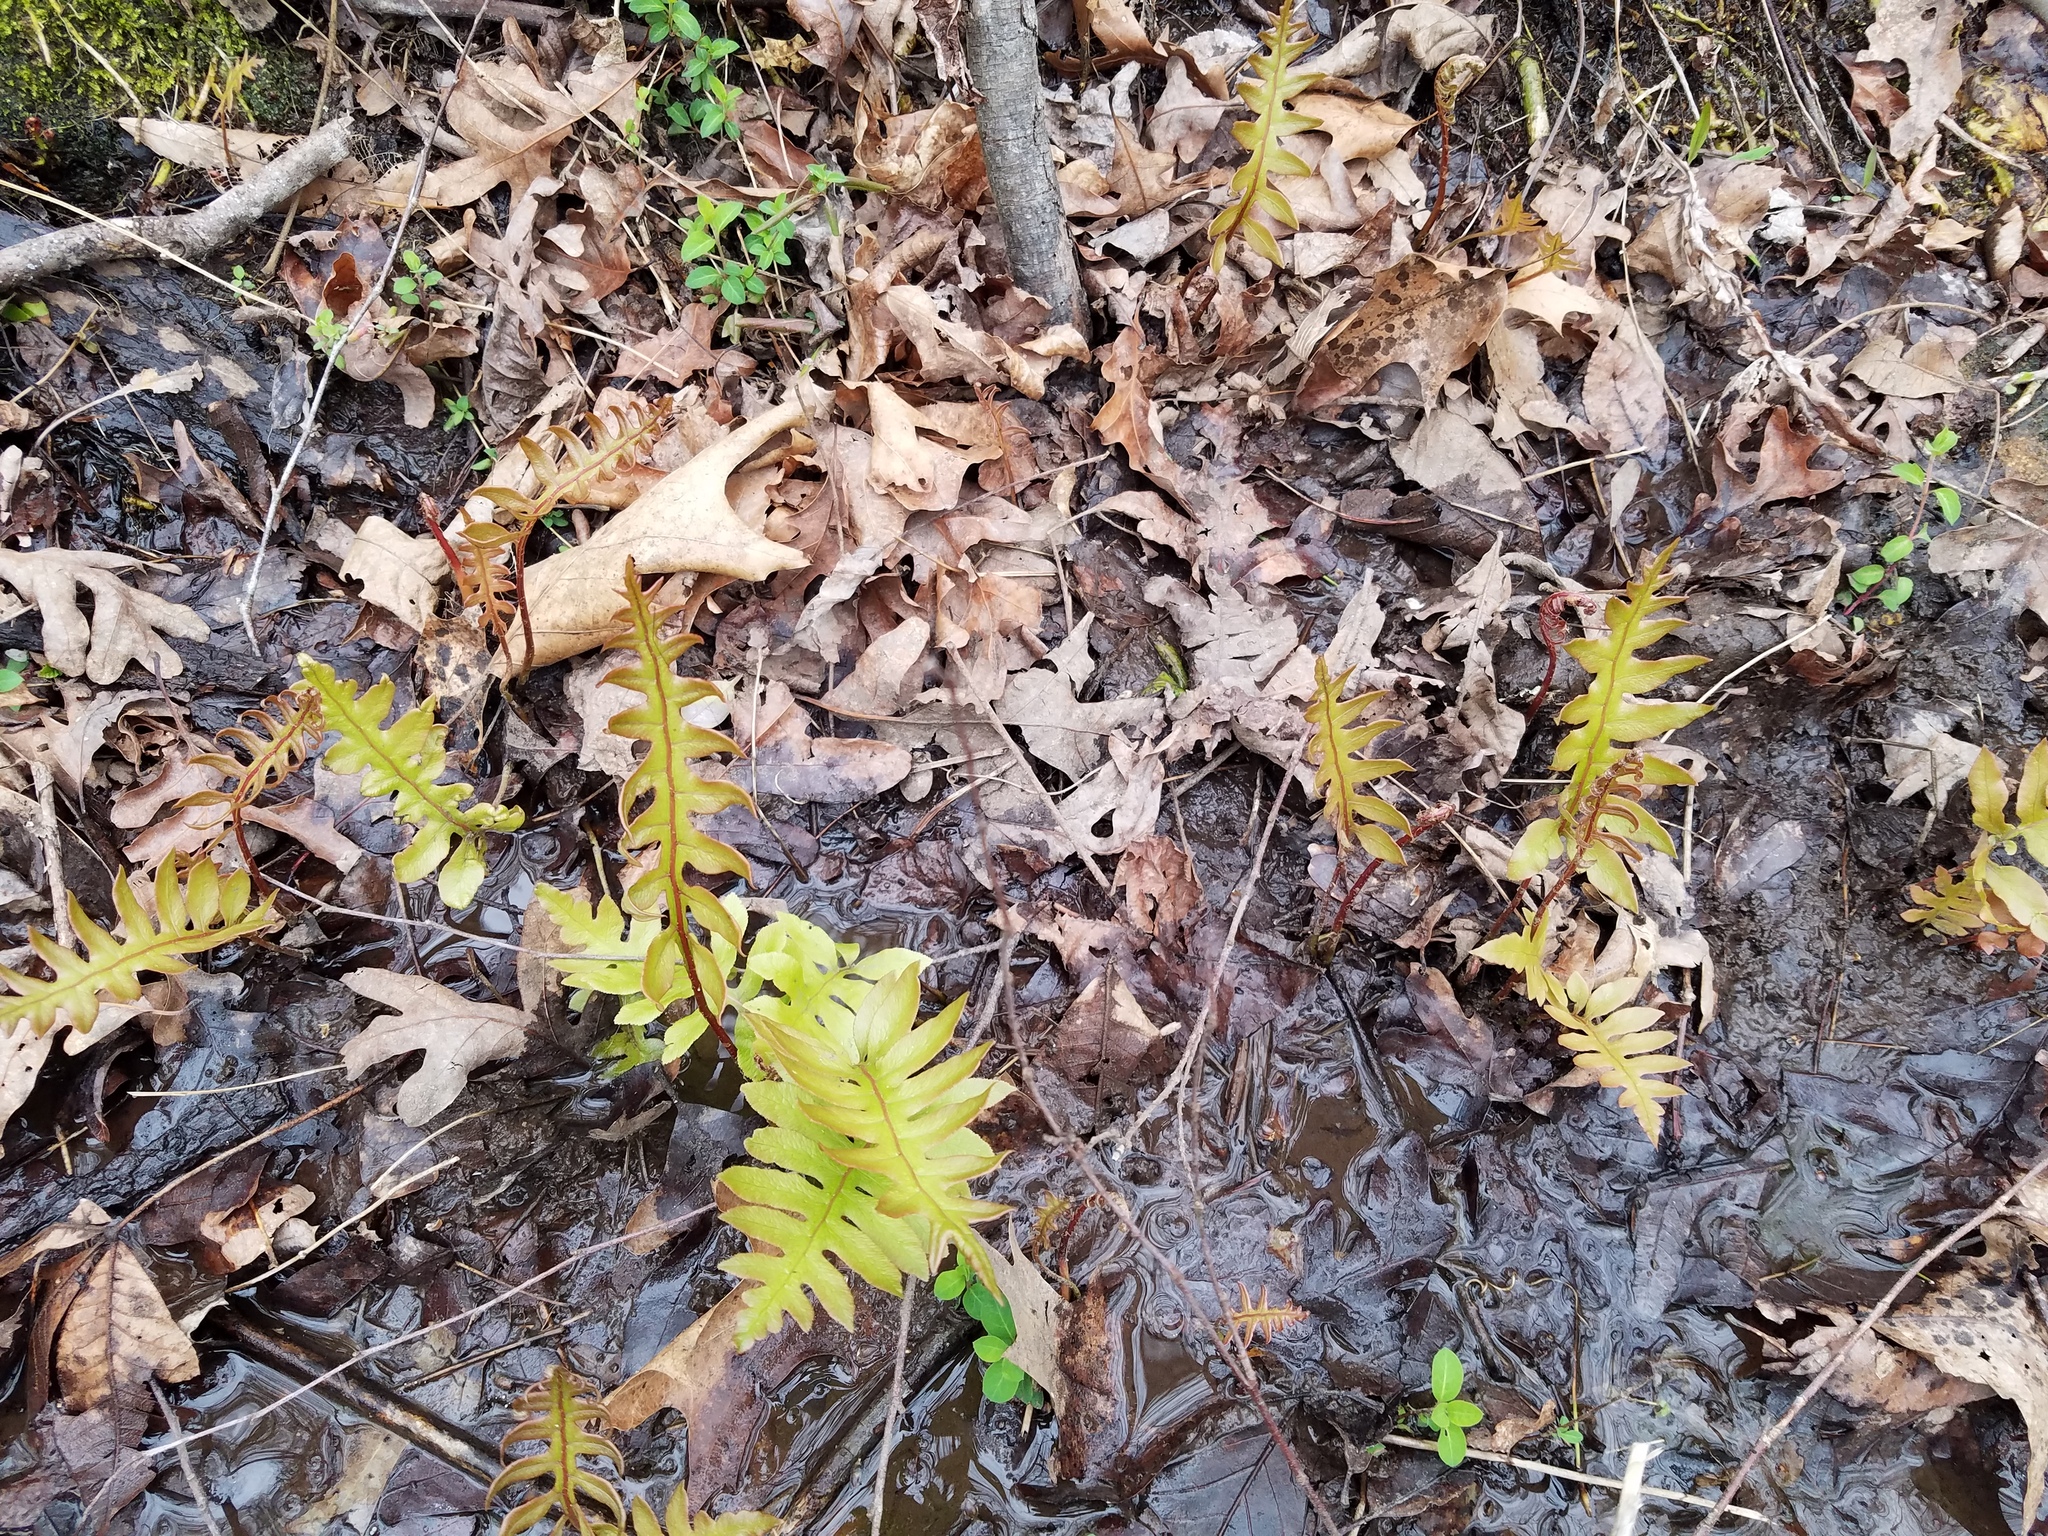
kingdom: Plantae
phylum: Tracheophyta
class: Polypodiopsida
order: Polypodiales
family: Blechnaceae
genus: Lorinseria
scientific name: Lorinseria areolata
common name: Dwarf chain fern
